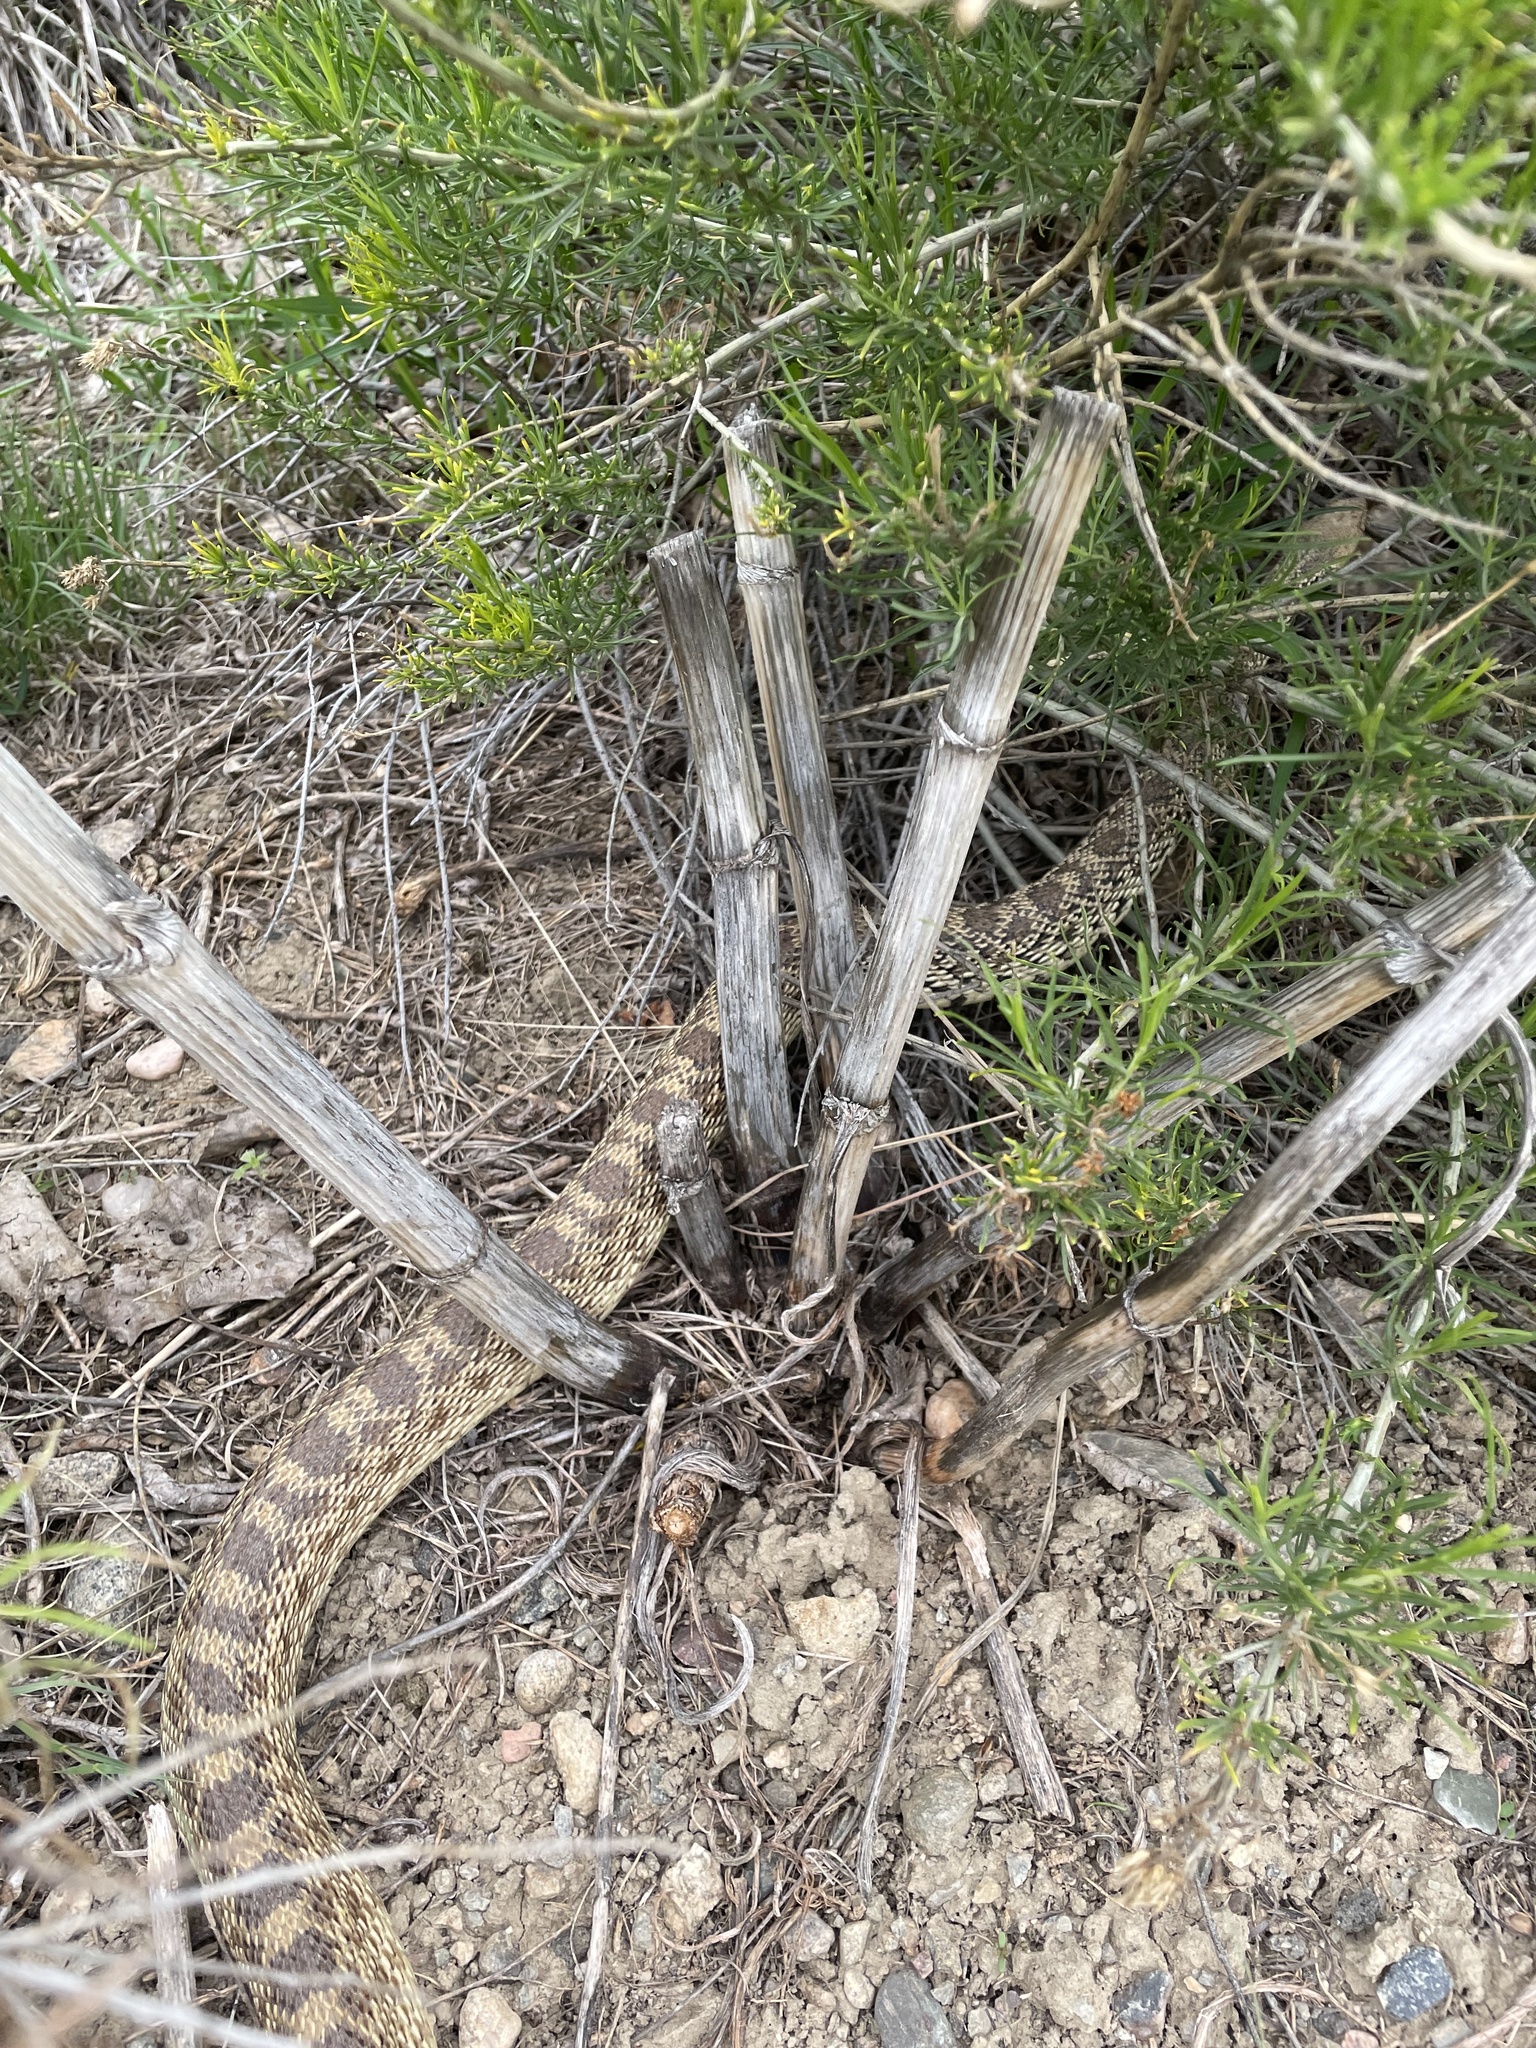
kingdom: Animalia
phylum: Chordata
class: Squamata
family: Colubridae
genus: Pituophis
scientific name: Pituophis catenifer
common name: Gopher snake
